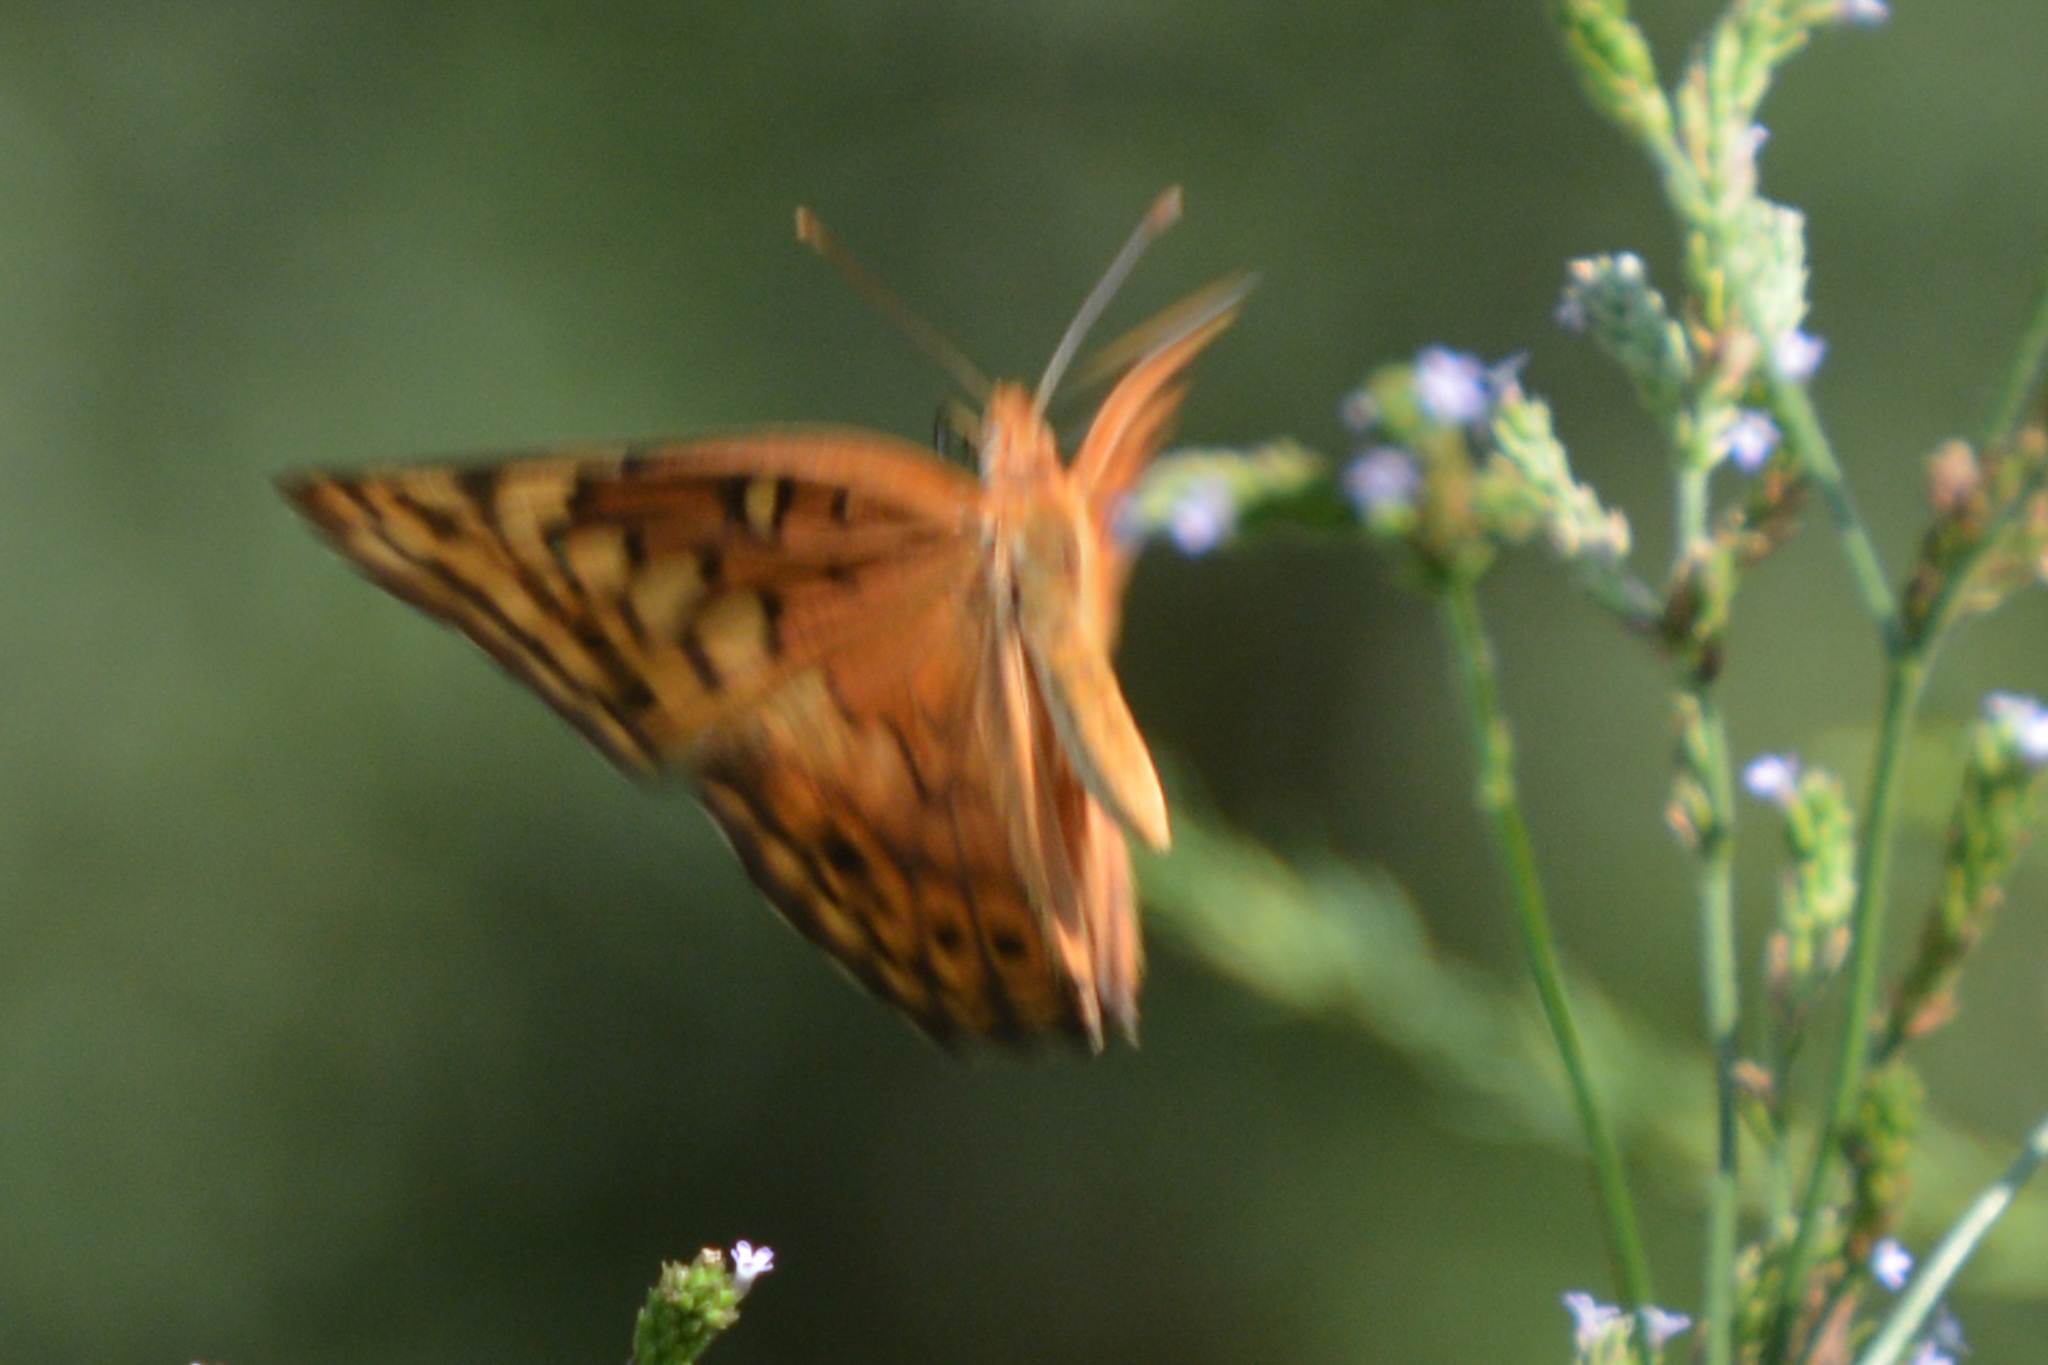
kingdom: Animalia
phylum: Arthropoda
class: Insecta
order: Lepidoptera
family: Nymphalidae
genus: Euptoieta
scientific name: Euptoieta claudia
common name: Variegated fritillary
